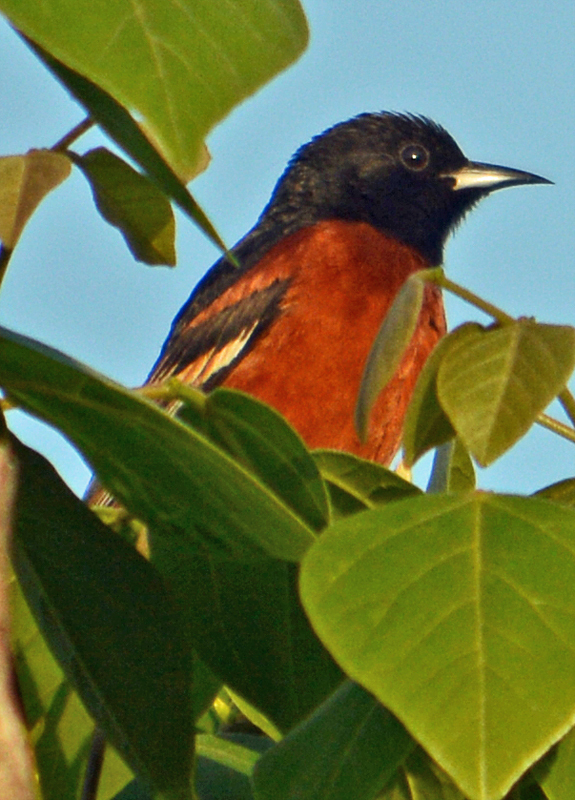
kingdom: Animalia
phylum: Chordata
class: Aves
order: Passeriformes
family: Icteridae
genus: Icterus
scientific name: Icterus spurius
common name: Orchard oriole
